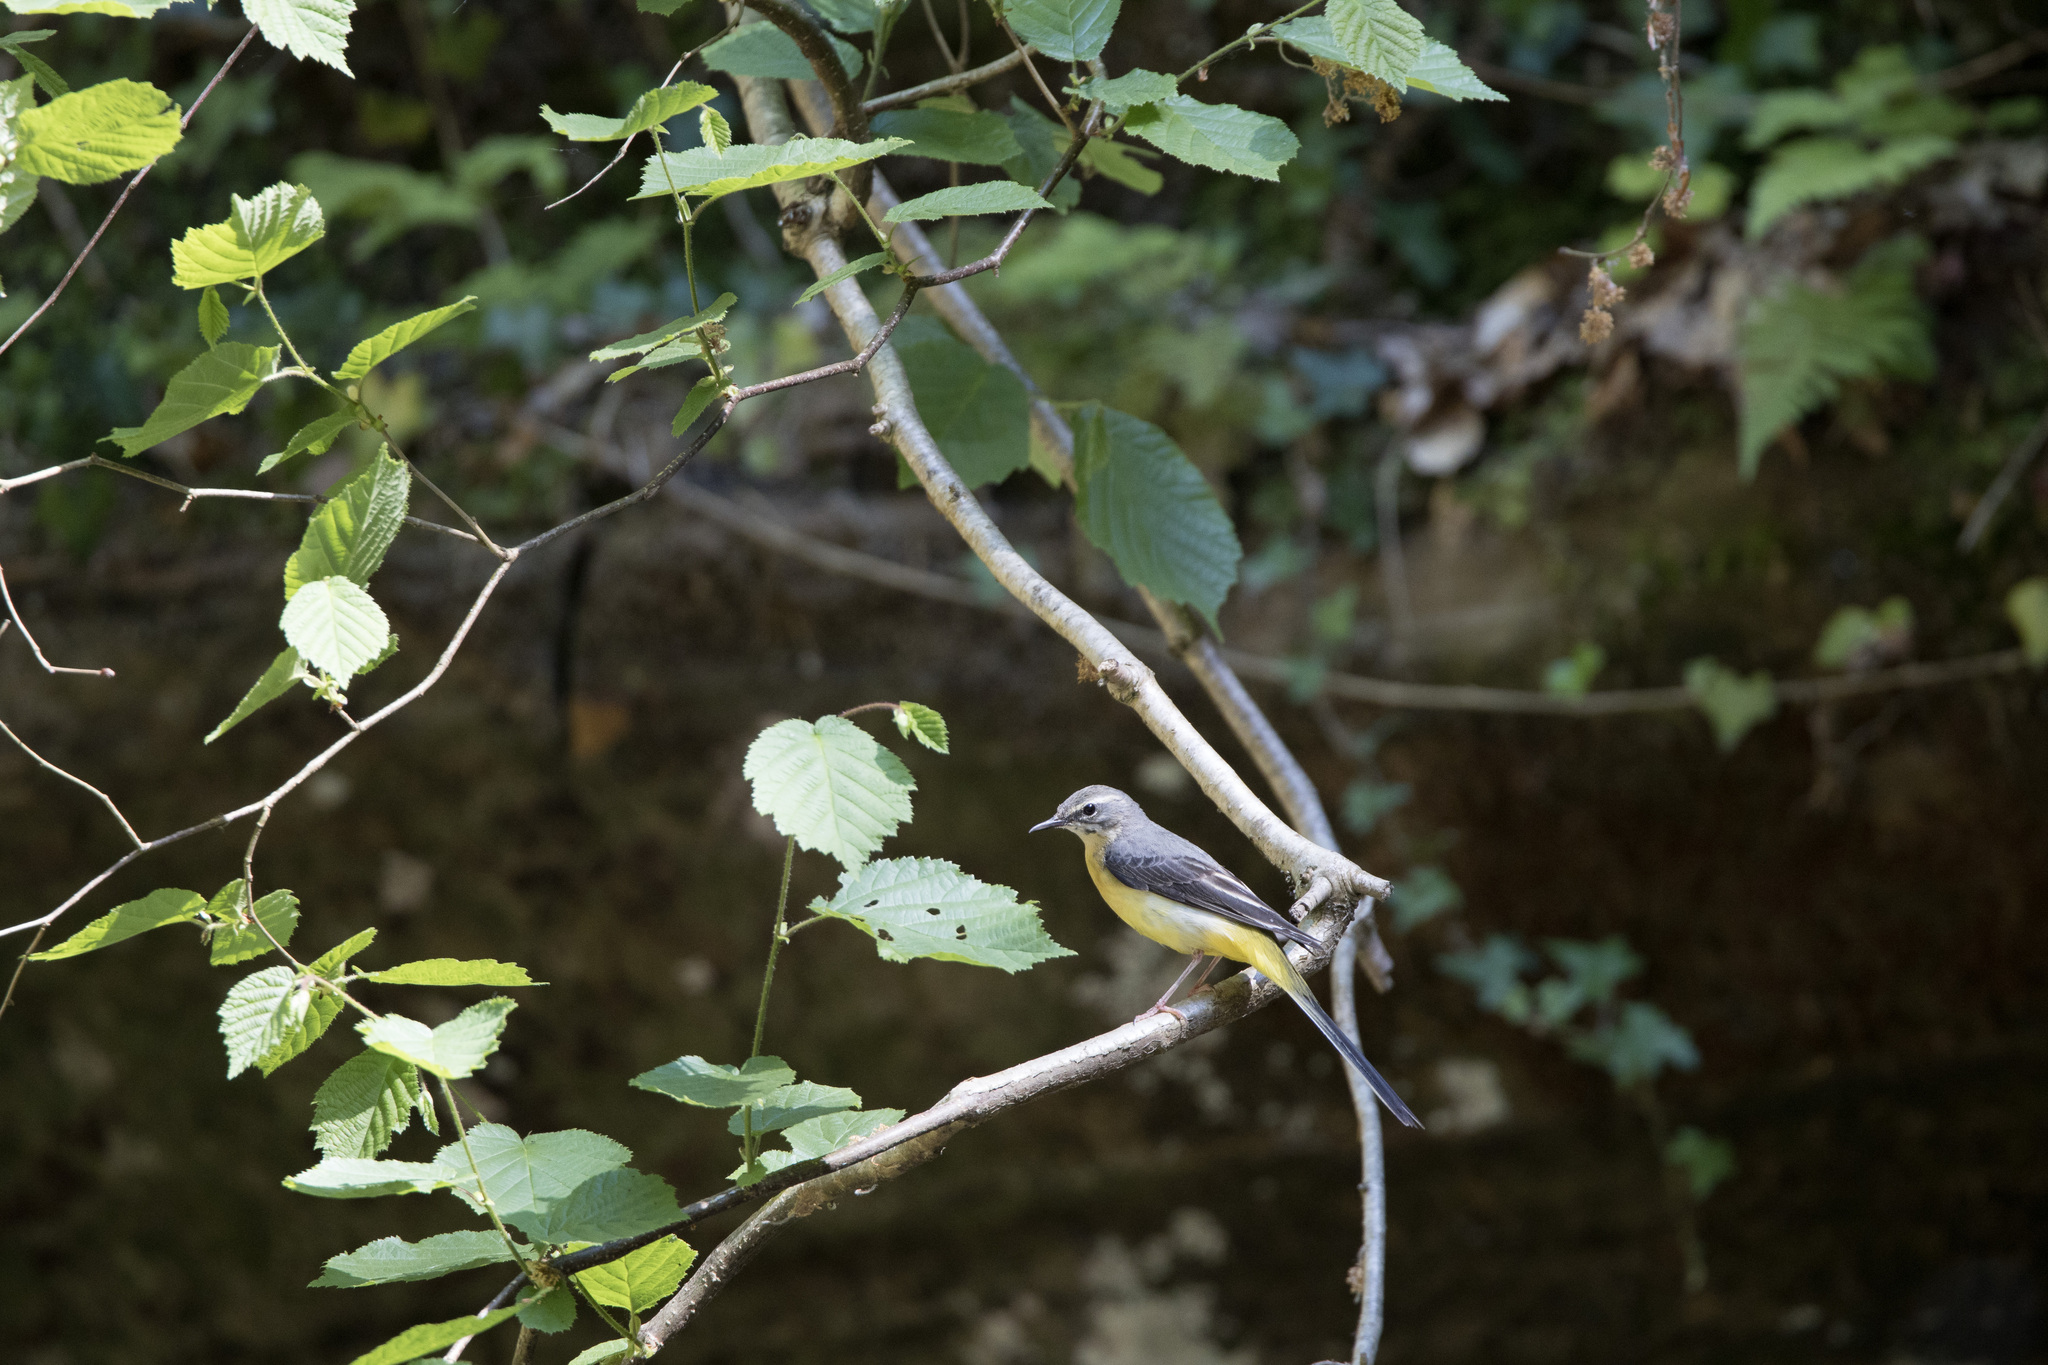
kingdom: Animalia
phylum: Chordata
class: Aves
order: Passeriformes
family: Motacillidae
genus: Motacilla
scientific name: Motacilla cinerea
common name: Grey wagtail
